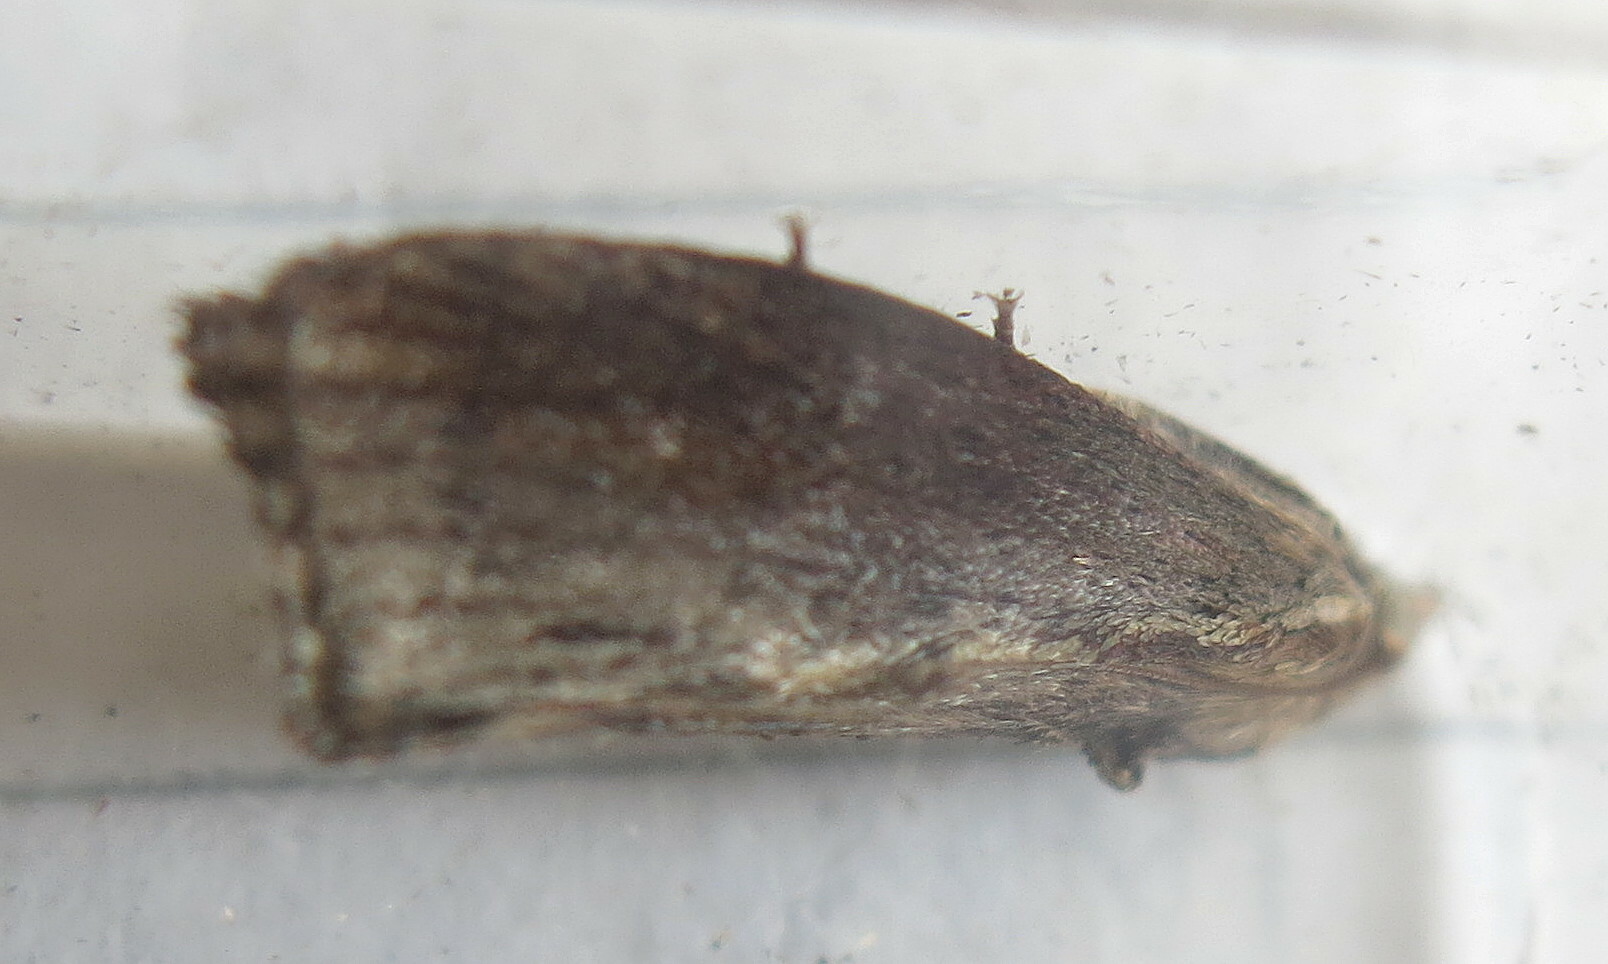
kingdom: Animalia
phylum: Arthropoda
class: Insecta
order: Lepidoptera
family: Pyralidae
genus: Galleria
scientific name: Galleria mellonella
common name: Greater wax moth
